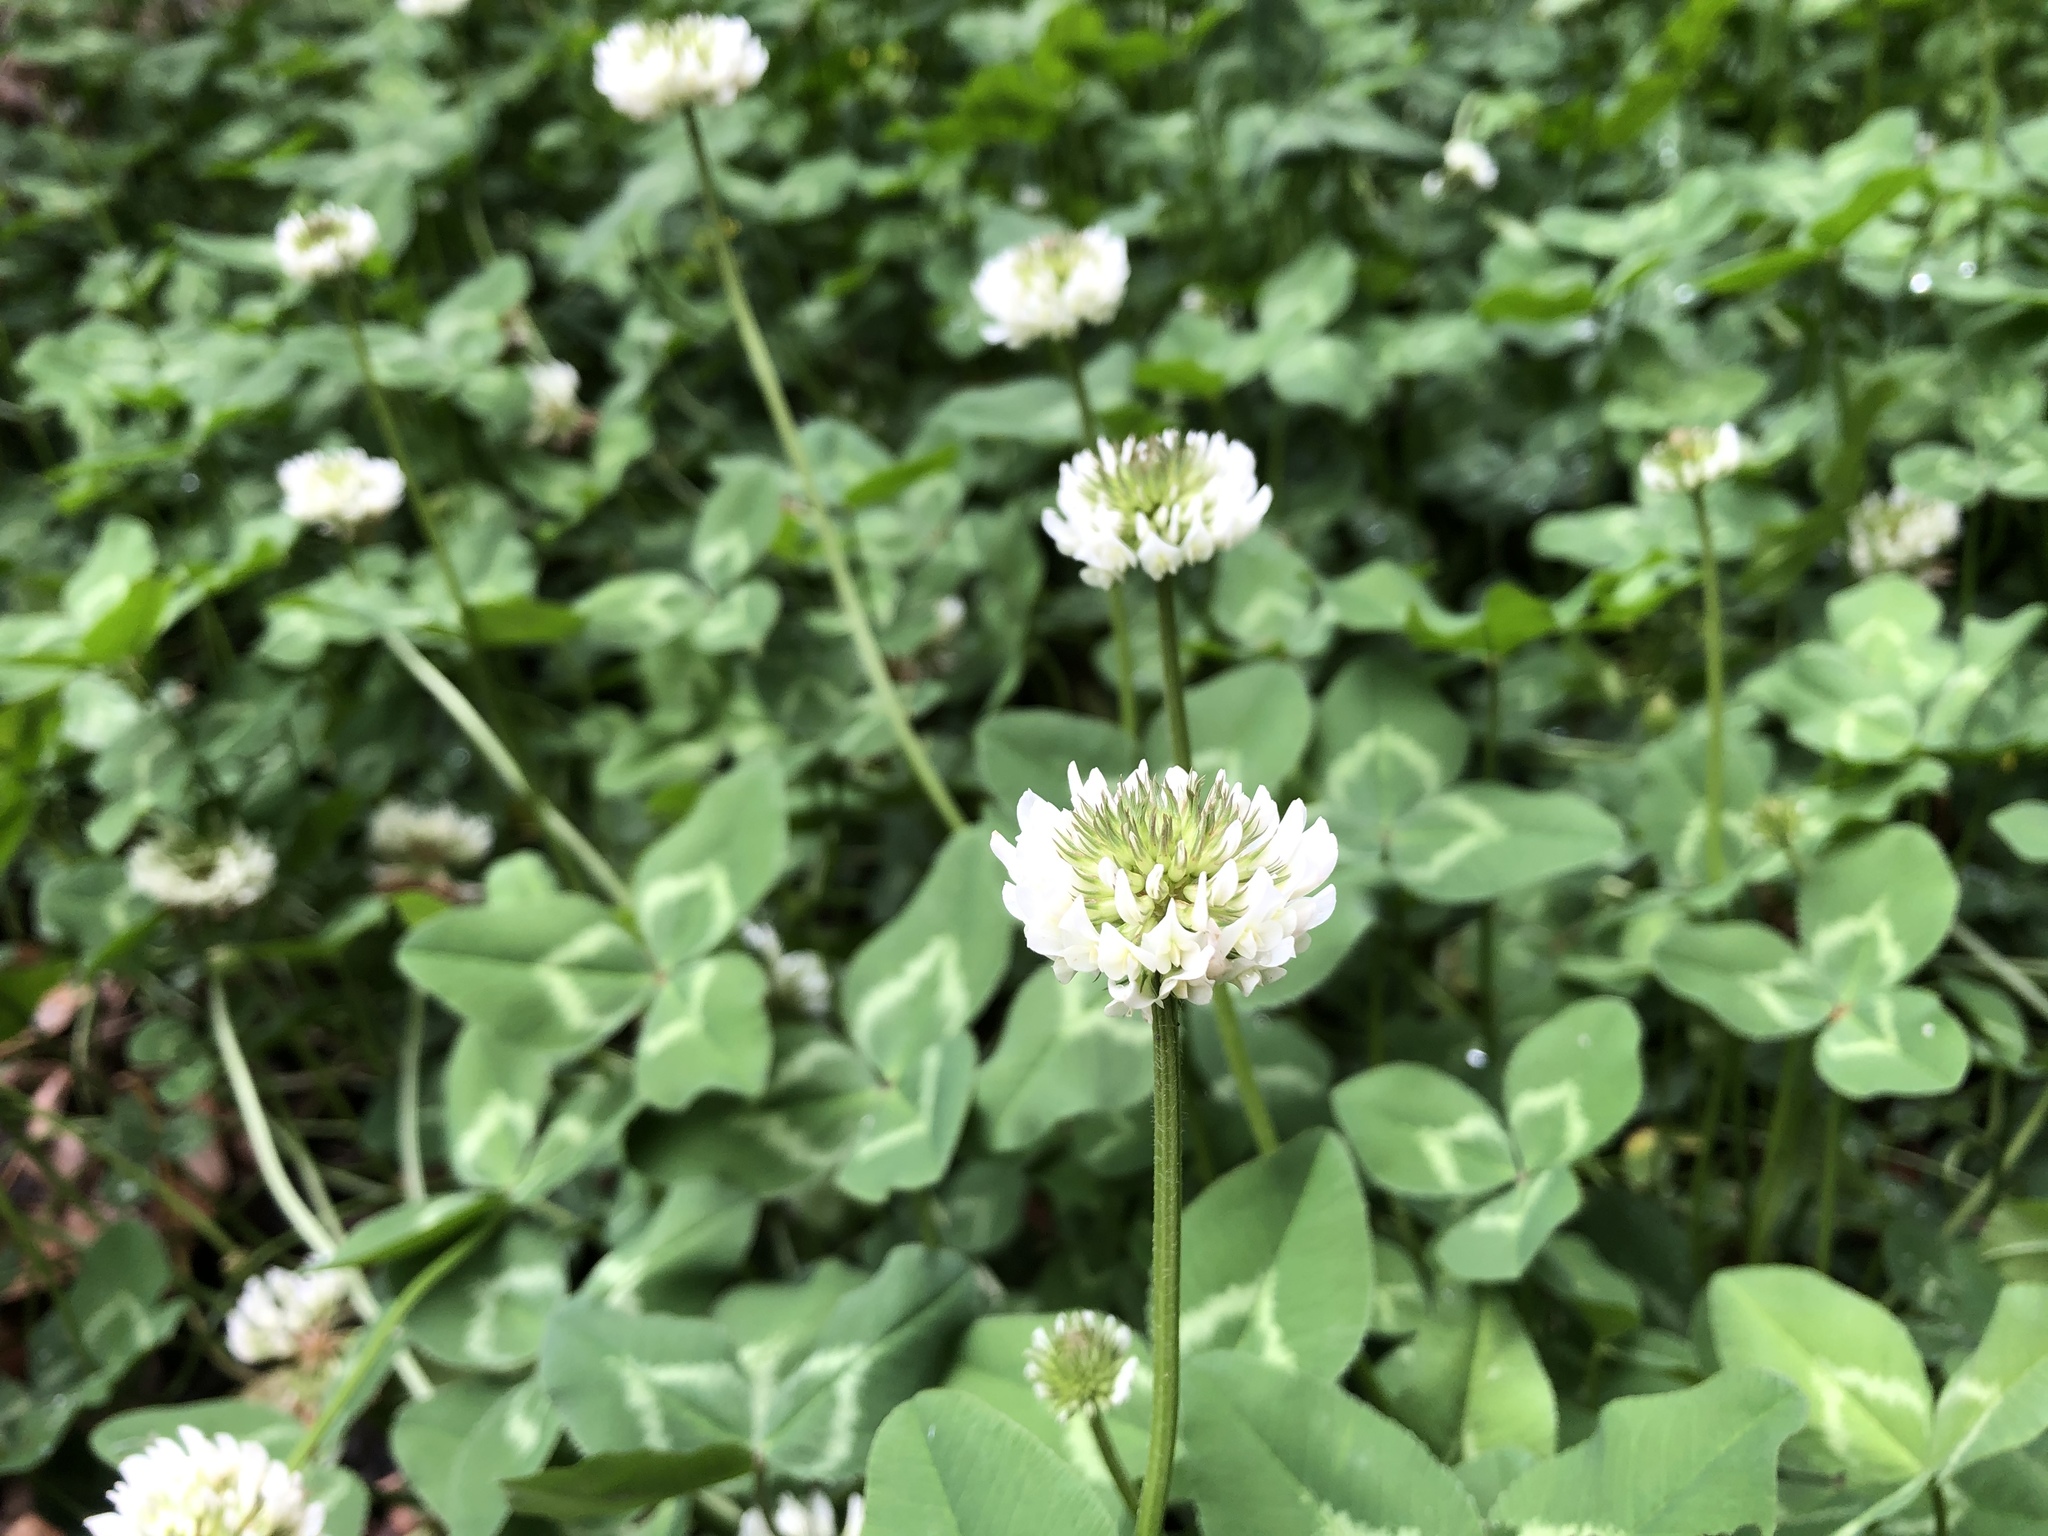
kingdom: Plantae
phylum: Tracheophyta
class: Magnoliopsida
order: Fabales
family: Fabaceae
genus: Trifolium
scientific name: Trifolium repens
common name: White clover
